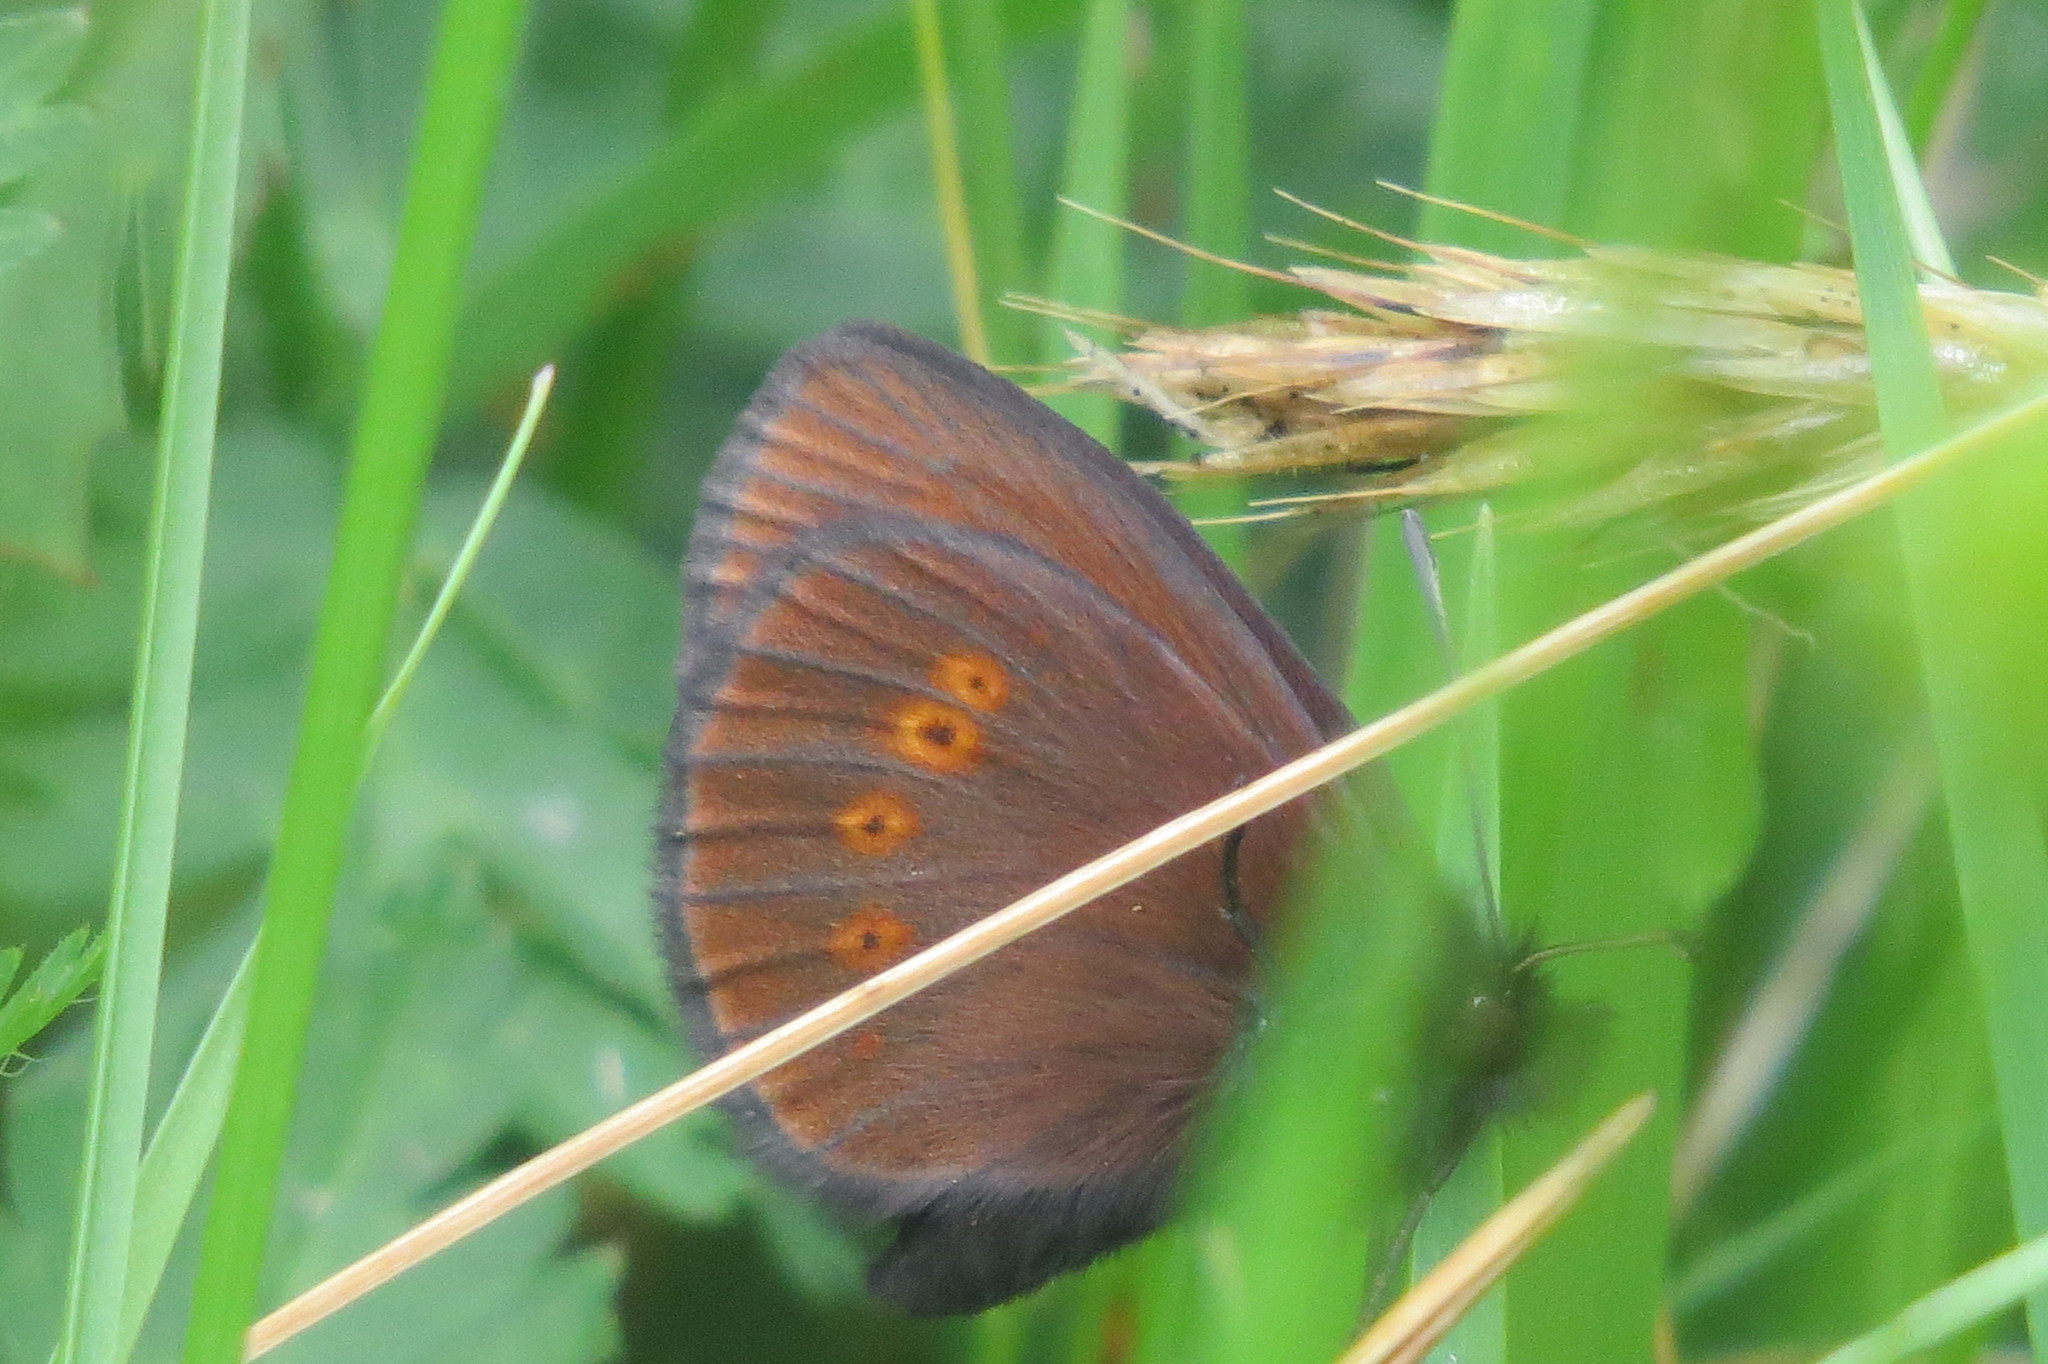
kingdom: Animalia
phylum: Arthropoda
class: Insecta
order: Lepidoptera
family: Nymphalidae
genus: Erebia
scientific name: Erebia melampus
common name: Lesser mountain ringlet
